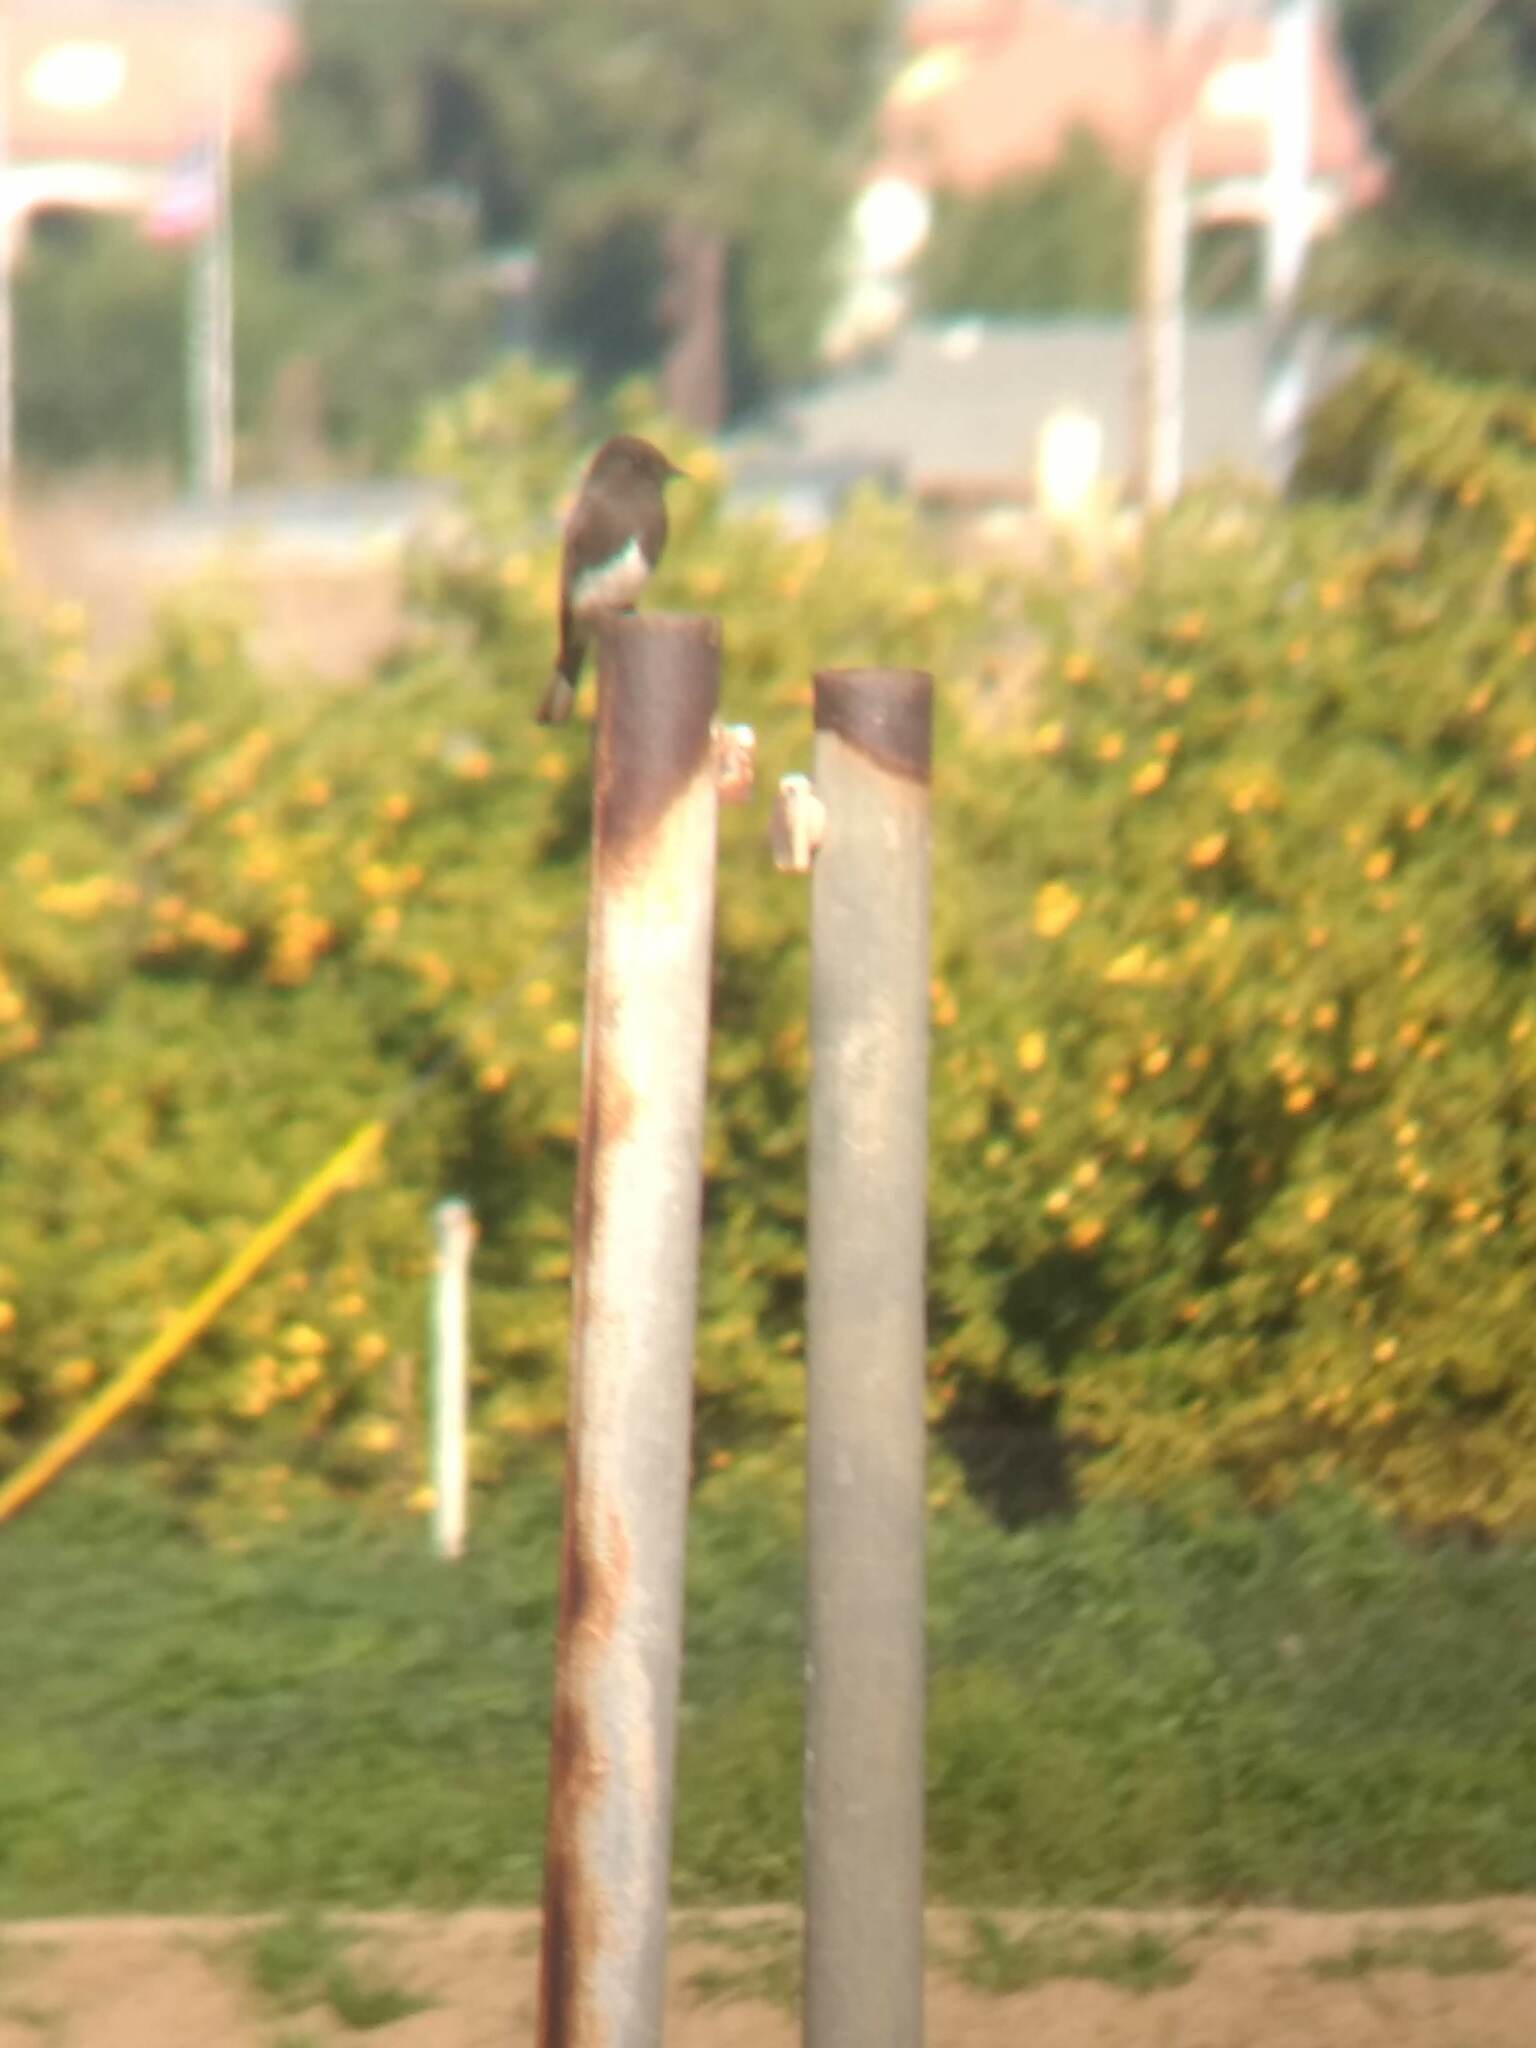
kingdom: Animalia
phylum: Chordata
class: Aves
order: Passeriformes
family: Tyrannidae
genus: Sayornis
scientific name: Sayornis nigricans
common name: Black phoebe
